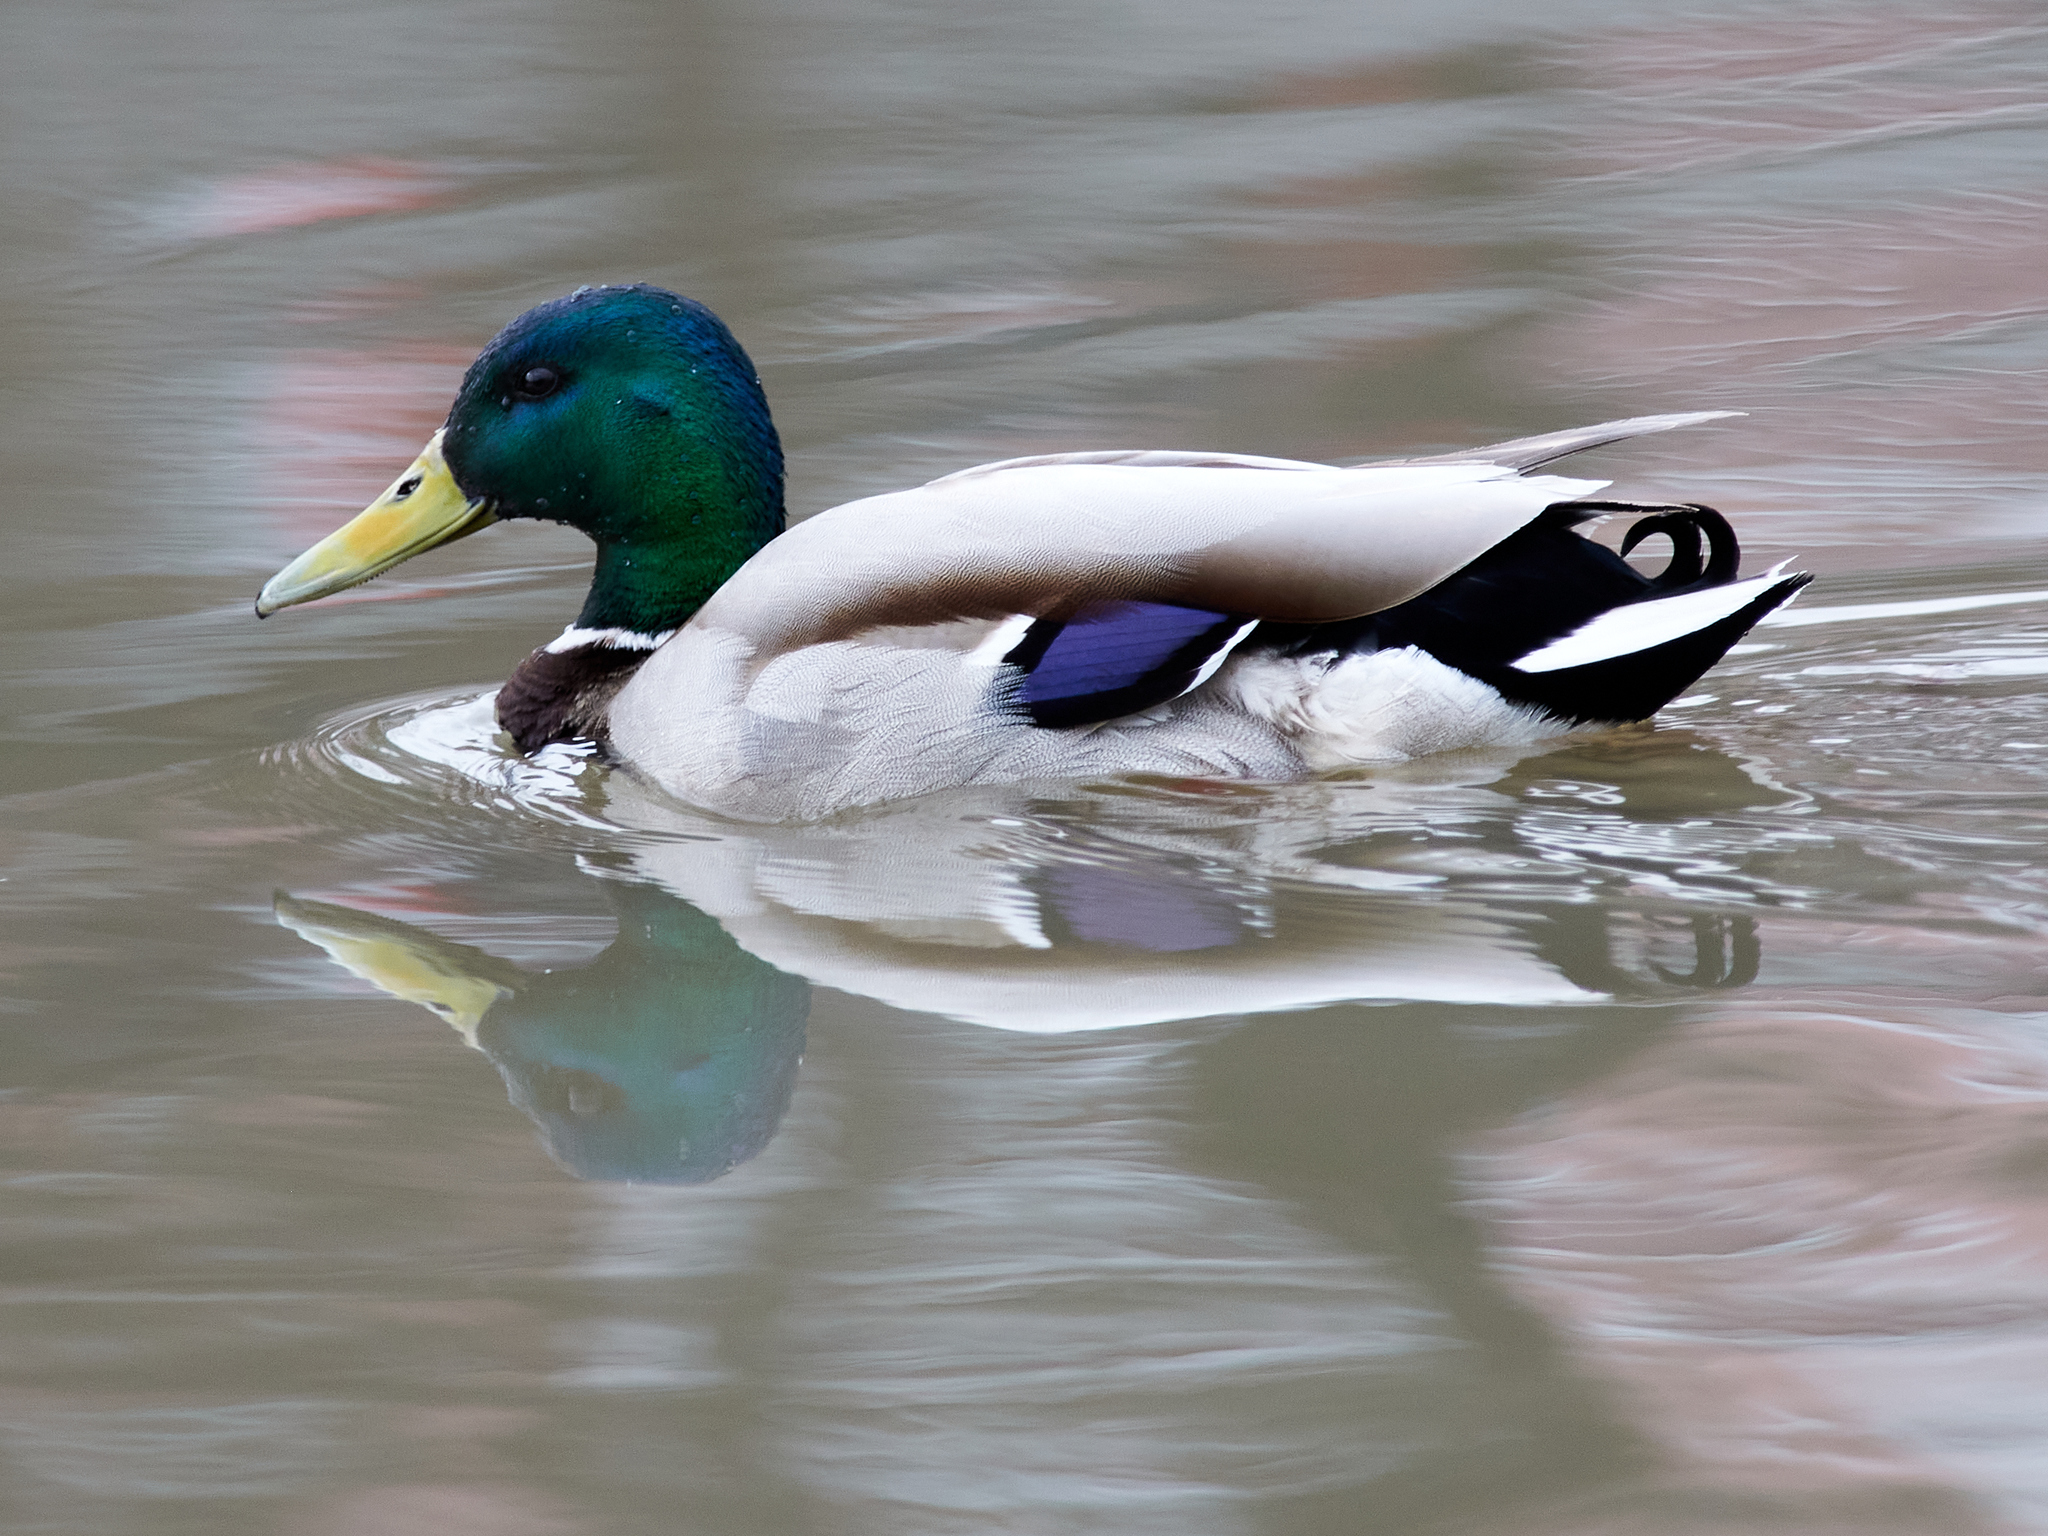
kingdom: Animalia
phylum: Chordata
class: Aves
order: Anseriformes
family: Anatidae
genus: Anas
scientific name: Anas platyrhynchos
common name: Mallard
